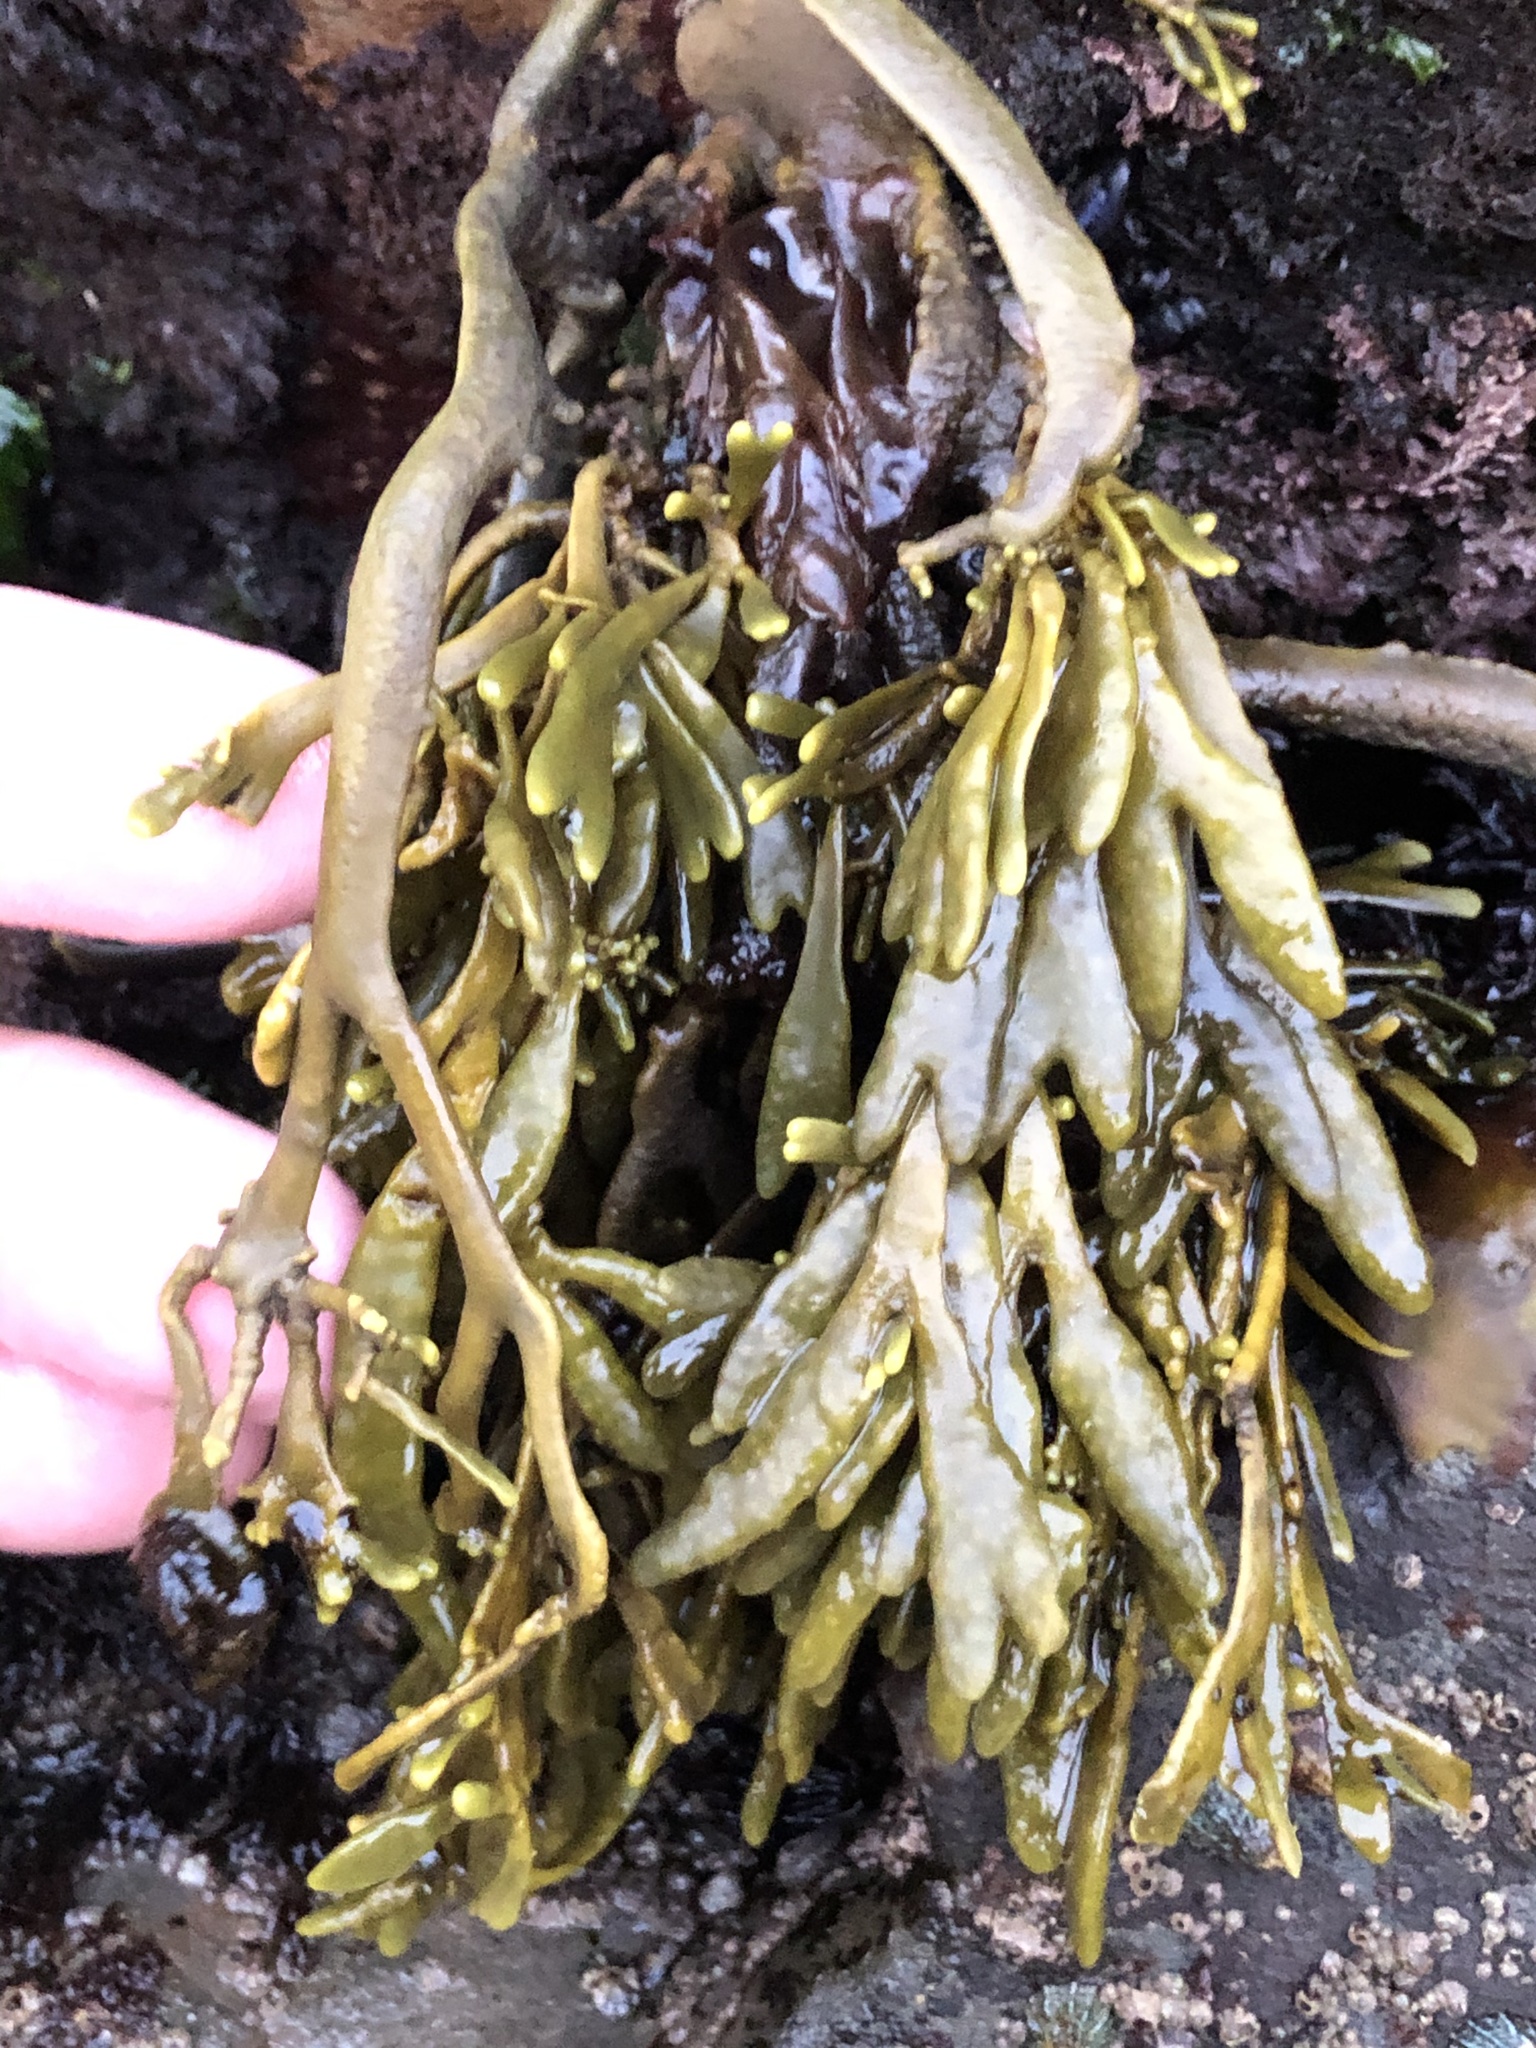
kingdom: Chromista
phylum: Ochrophyta
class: Phaeophyceae
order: Fucales
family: Fucaceae
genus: Silvetia
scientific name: Silvetia
